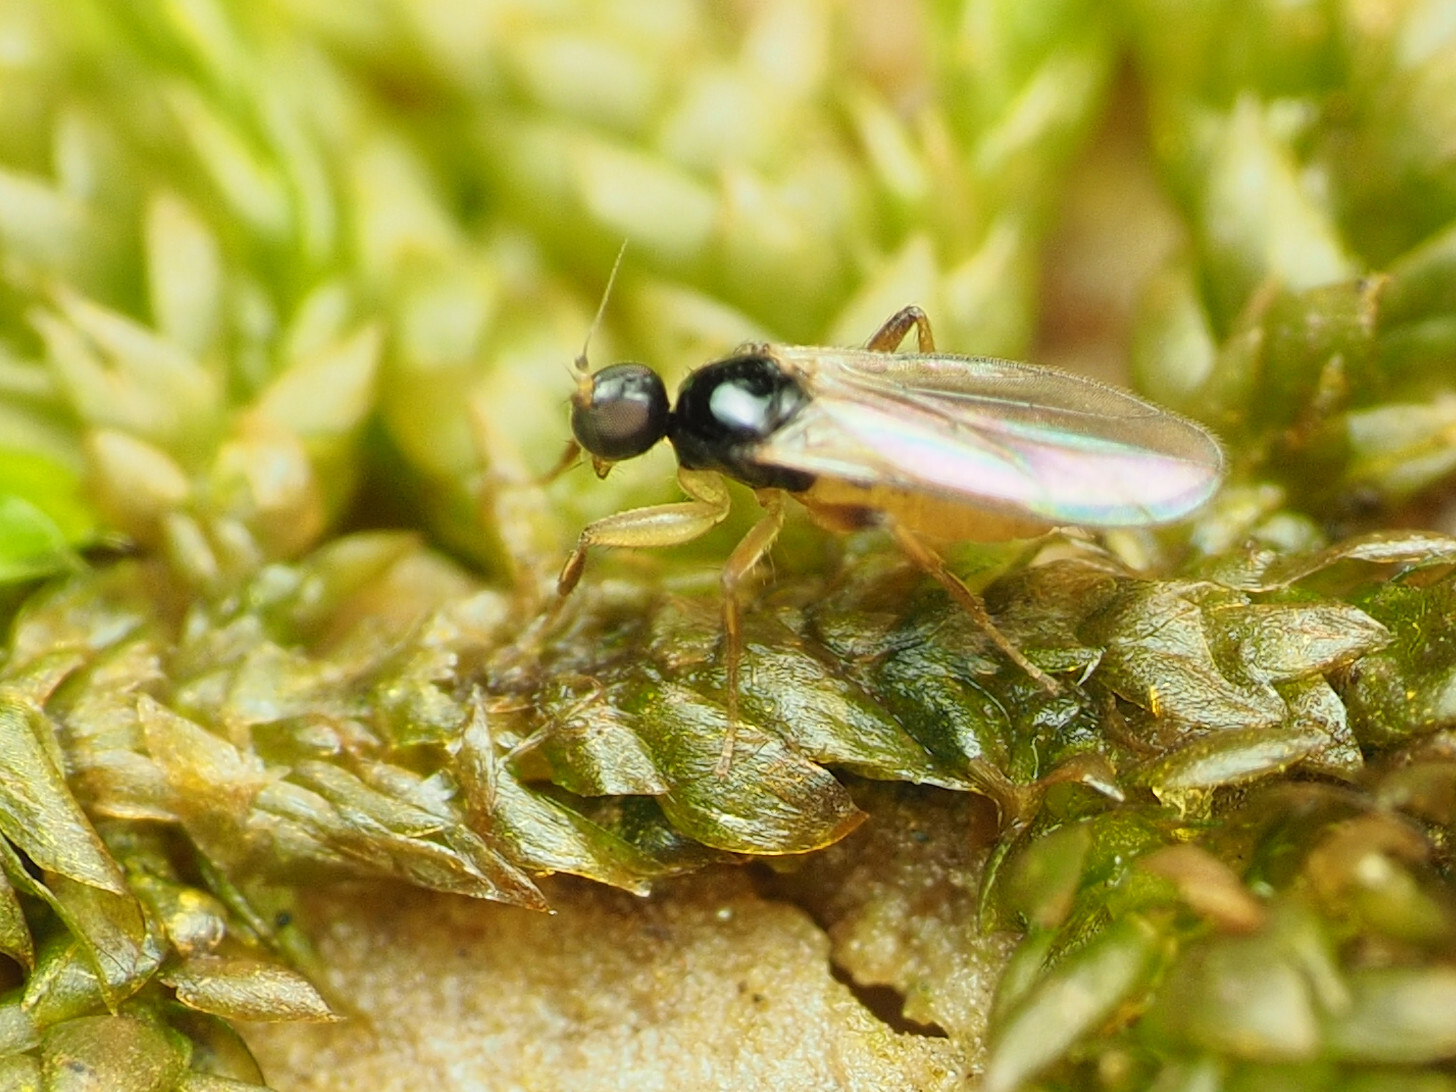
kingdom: Animalia
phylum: Arthropoda
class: Insecta
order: Diptera
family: Hybotidae
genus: Stilpon
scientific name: Stilpon ctenistes
